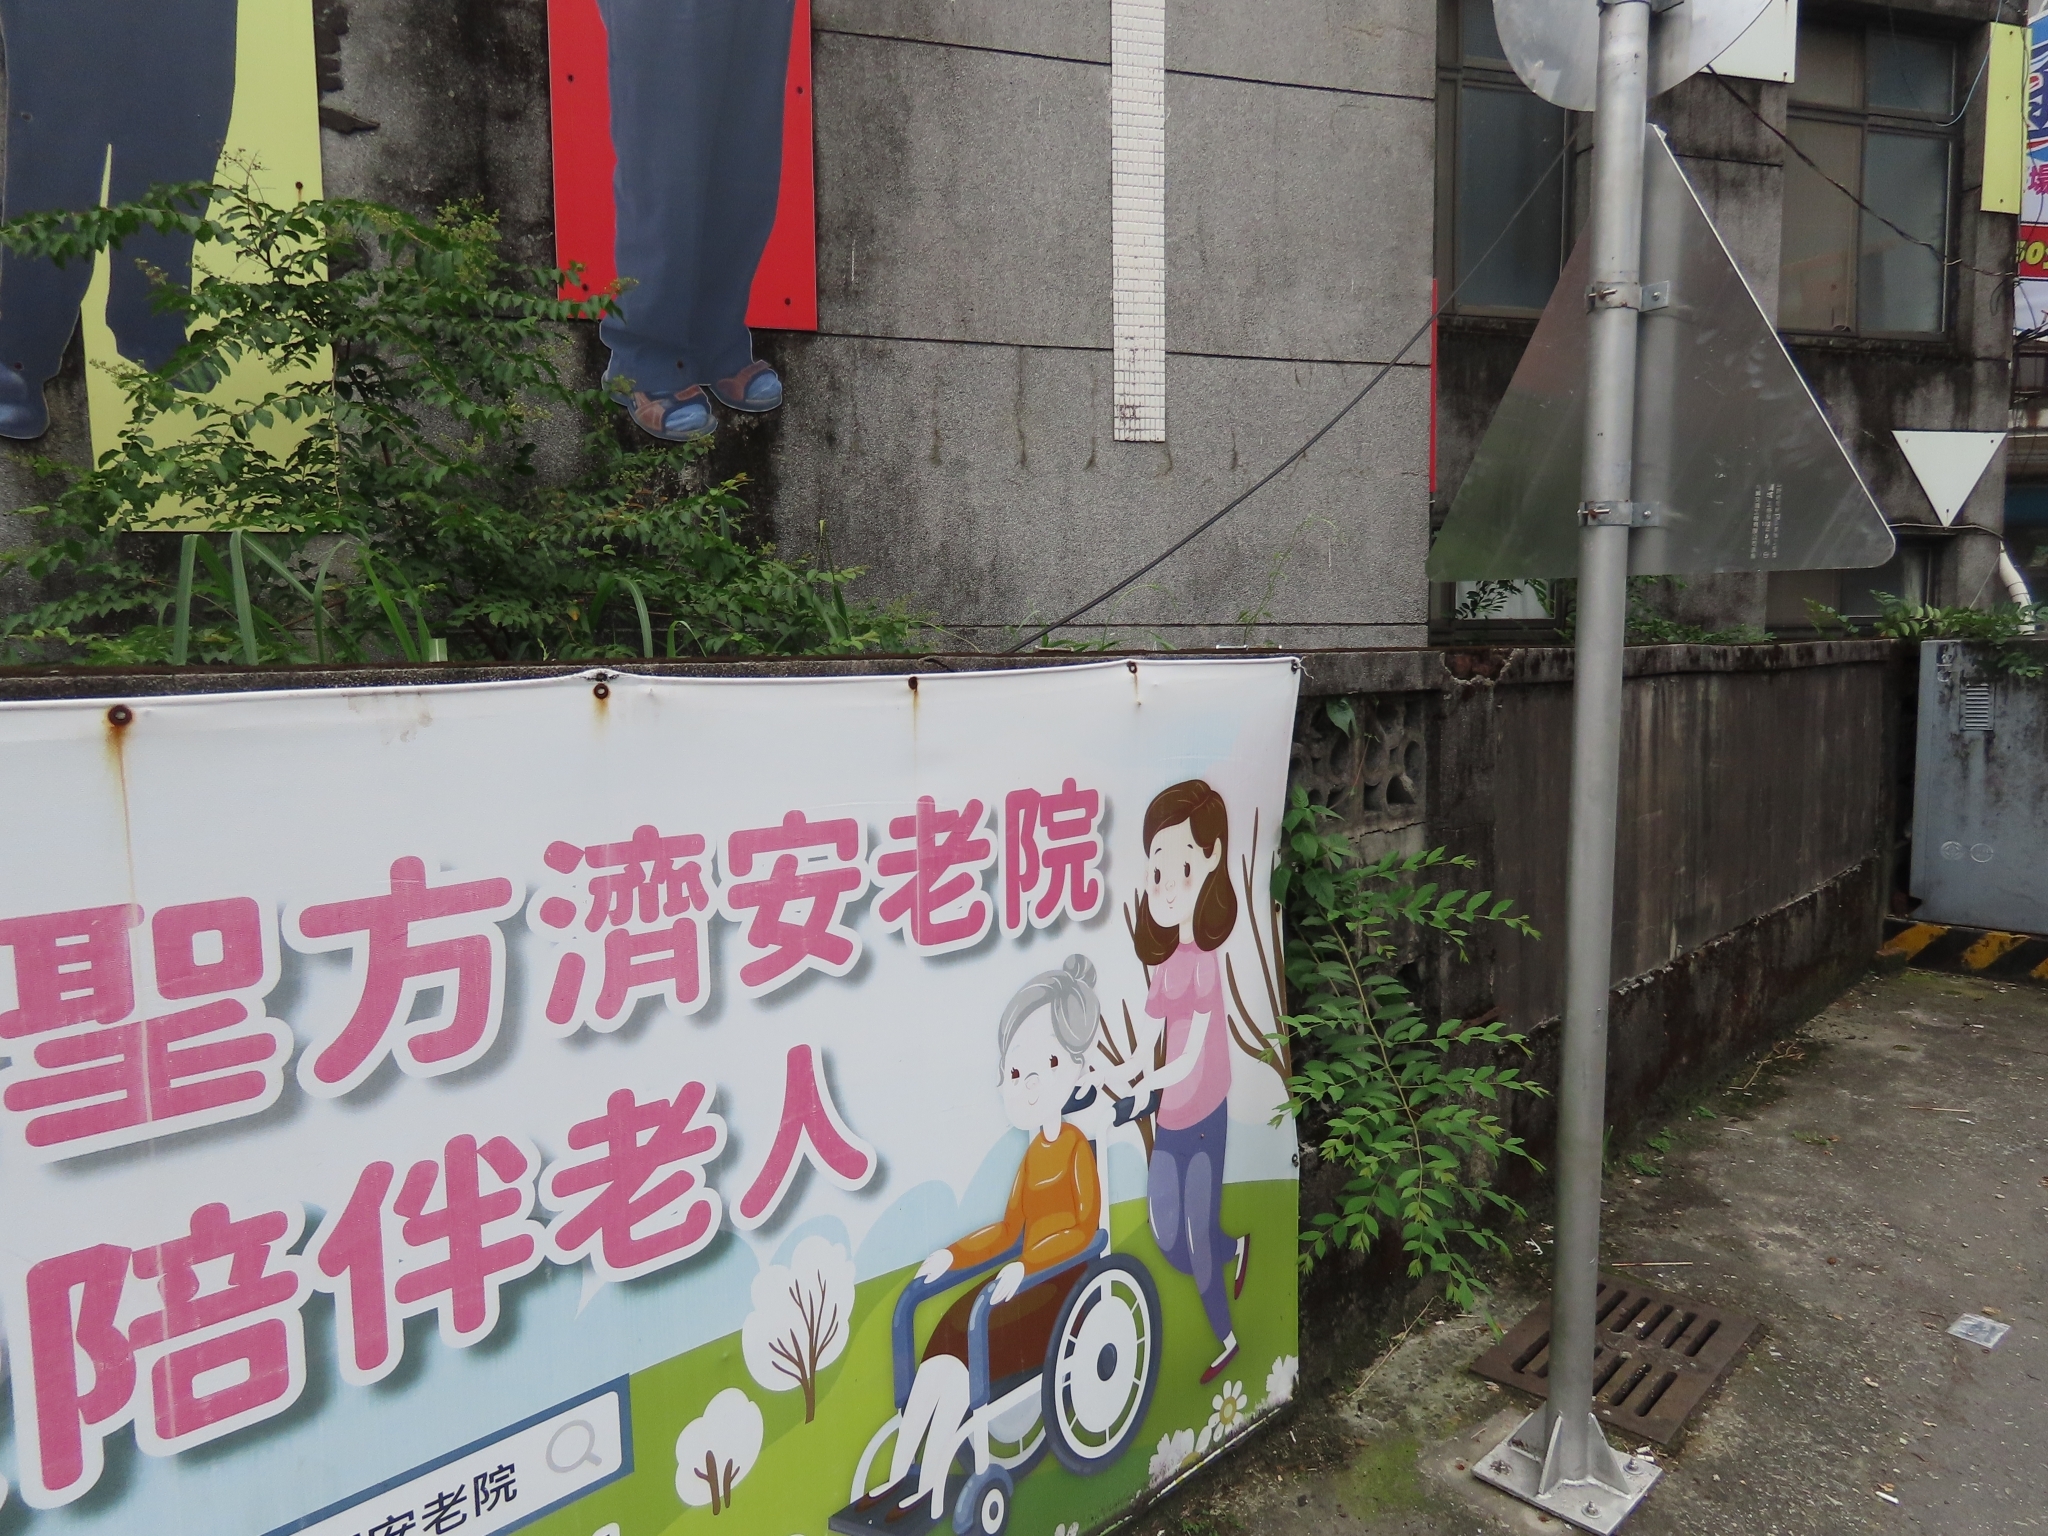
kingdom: Plantae
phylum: Tracheophyta
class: Magnoliopsida
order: Myrtales
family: Lythraceae
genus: Lagerstroemia
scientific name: Lagerstroemia subcostata
